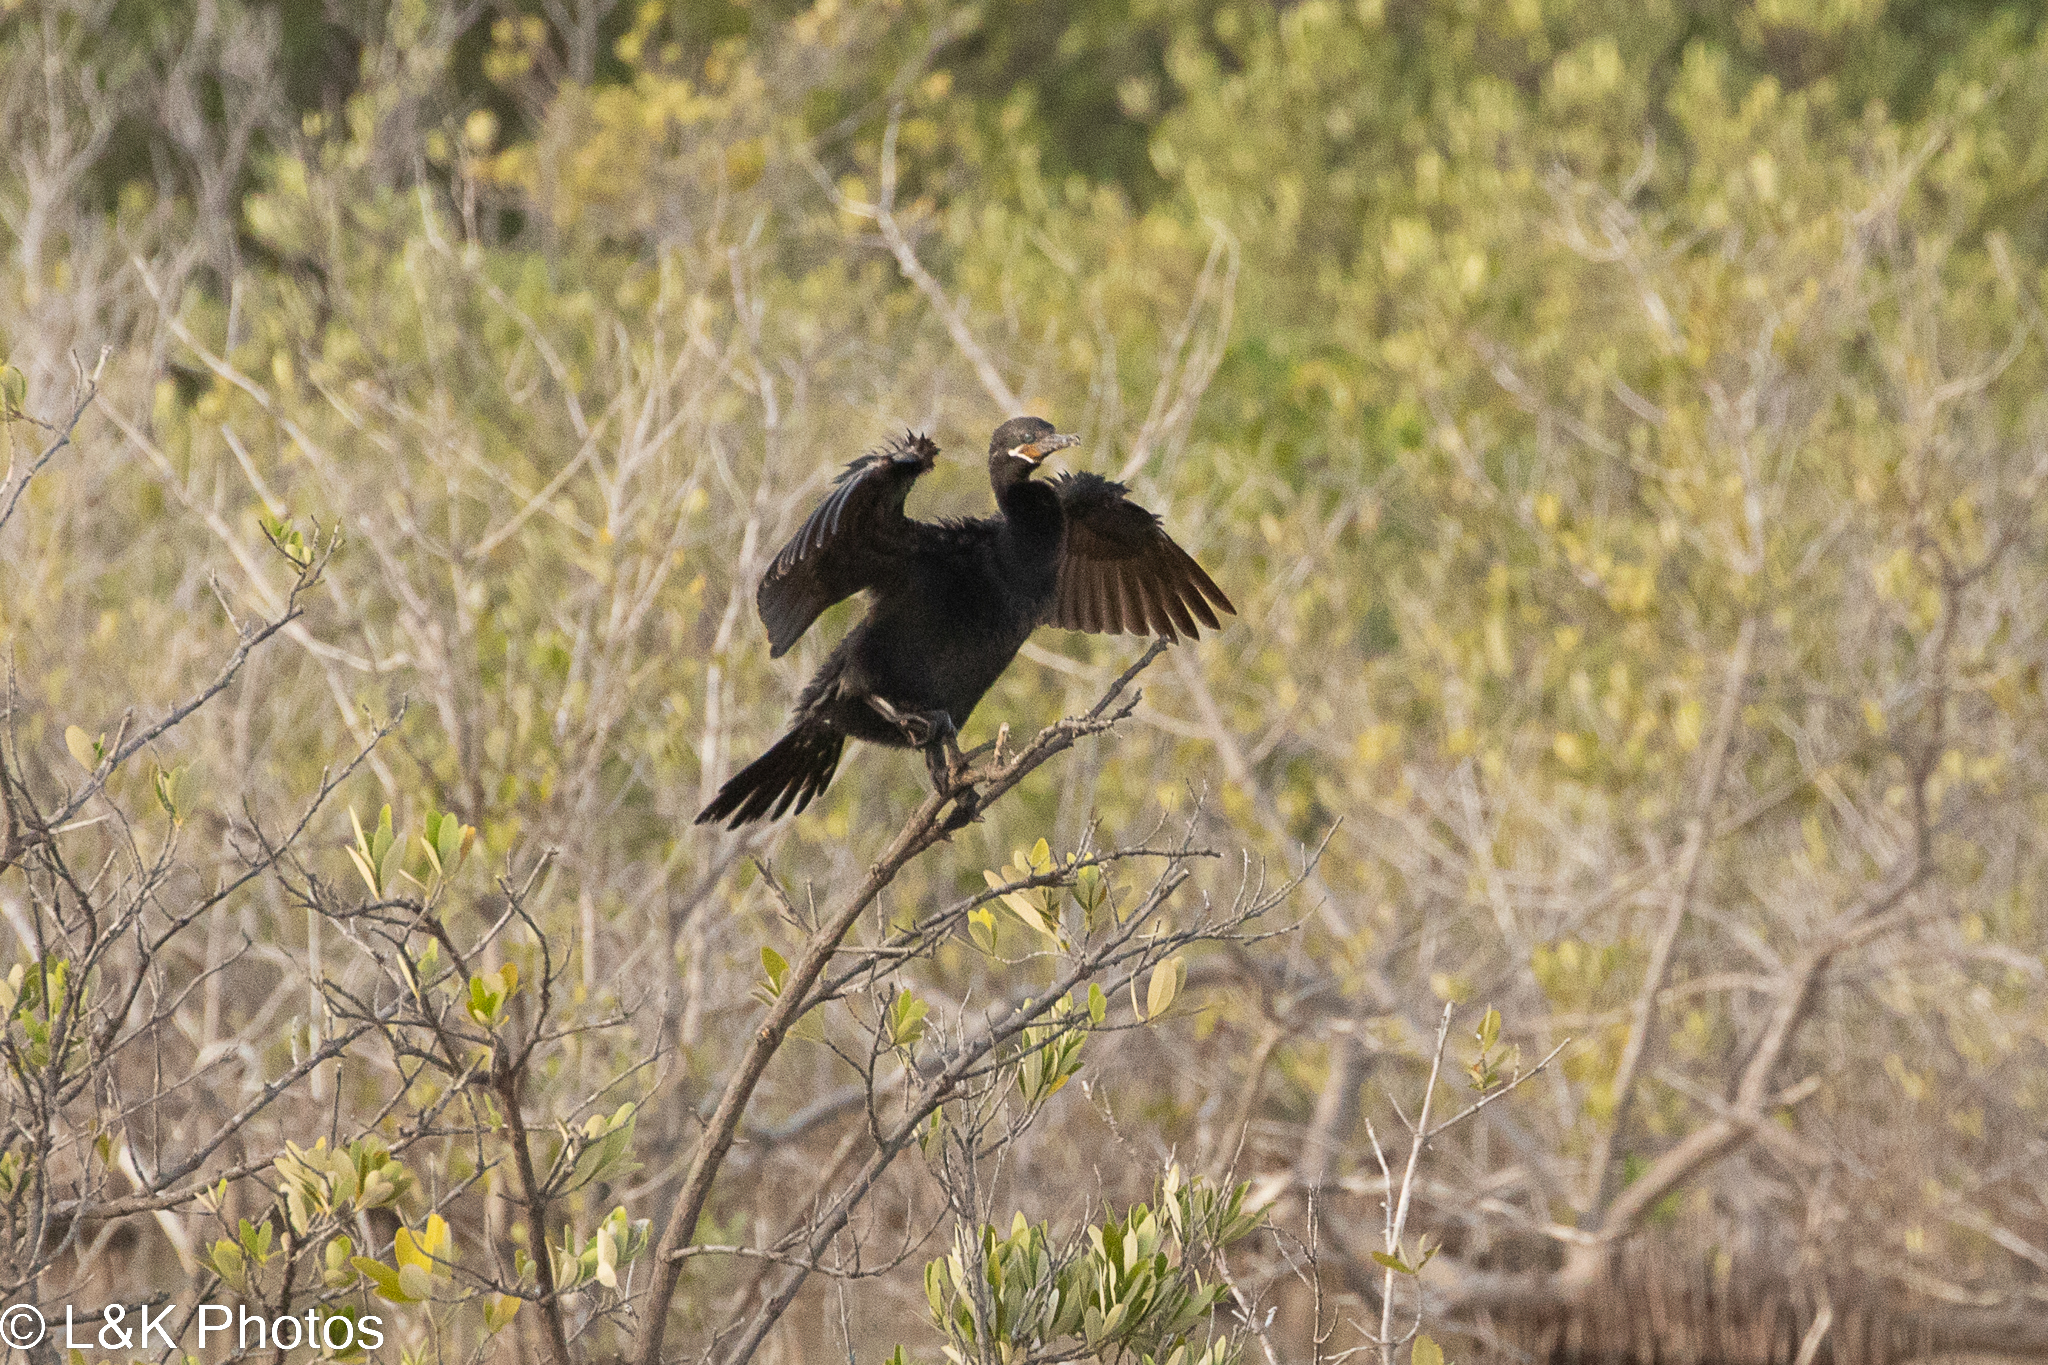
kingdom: Animalia
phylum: Chordata
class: Aves
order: Suliformes
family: Phalacrocoracidae
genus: Phalacrocorax
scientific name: Phalacrocorax brasilianus
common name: Neotropic cormorant
